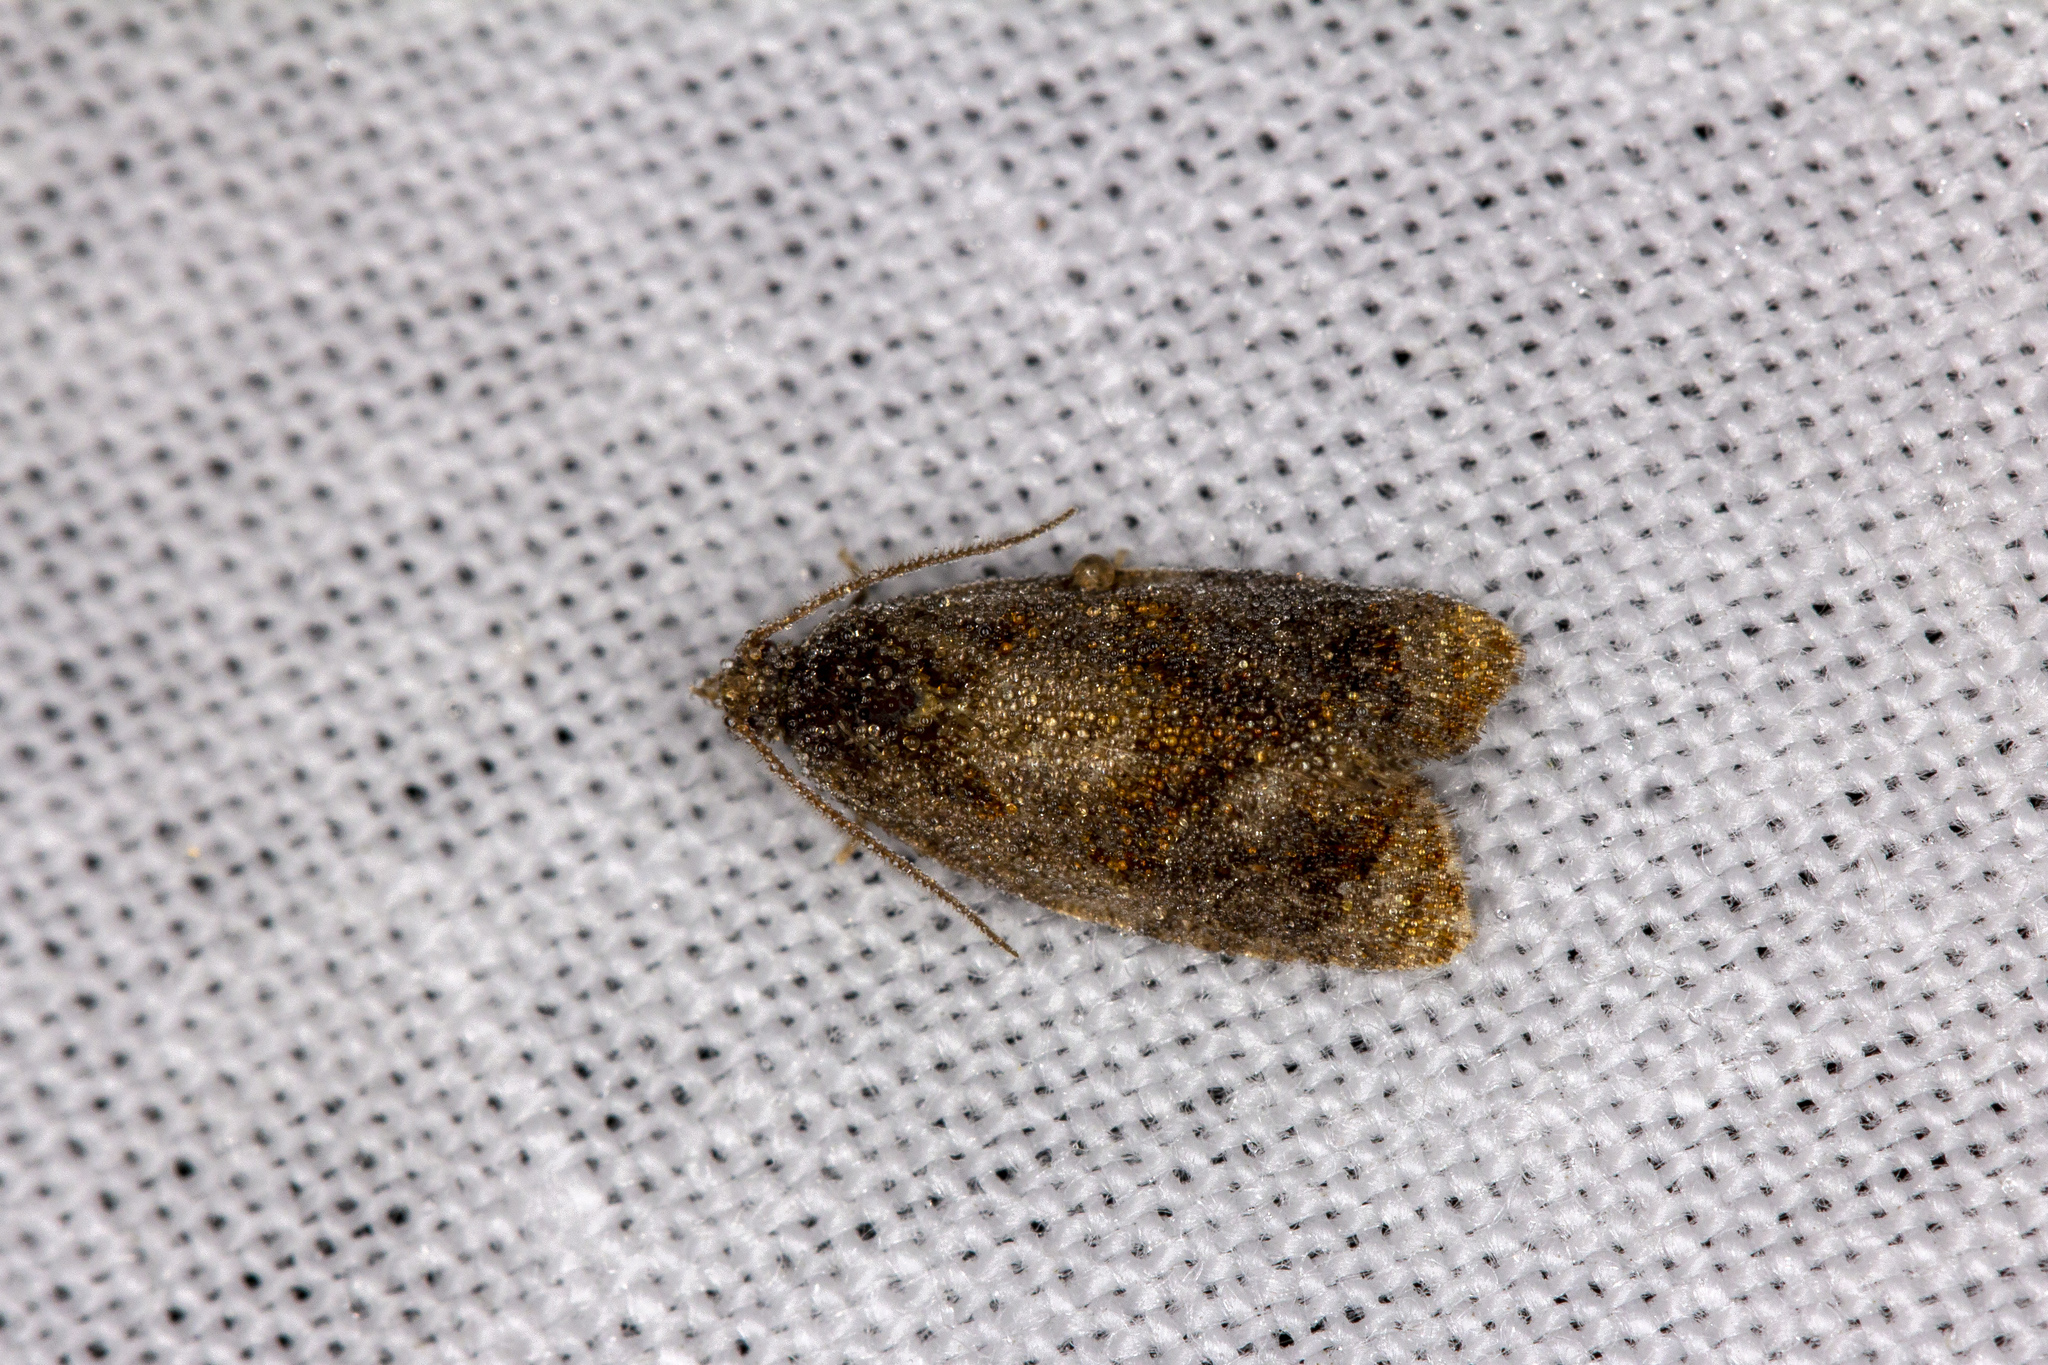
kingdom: Animalia
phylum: Arthropoda
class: Insecta
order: Lepidoptera
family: Tortricidae
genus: Ditula
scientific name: Ditula angustiorana
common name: Red-barred tortrix
